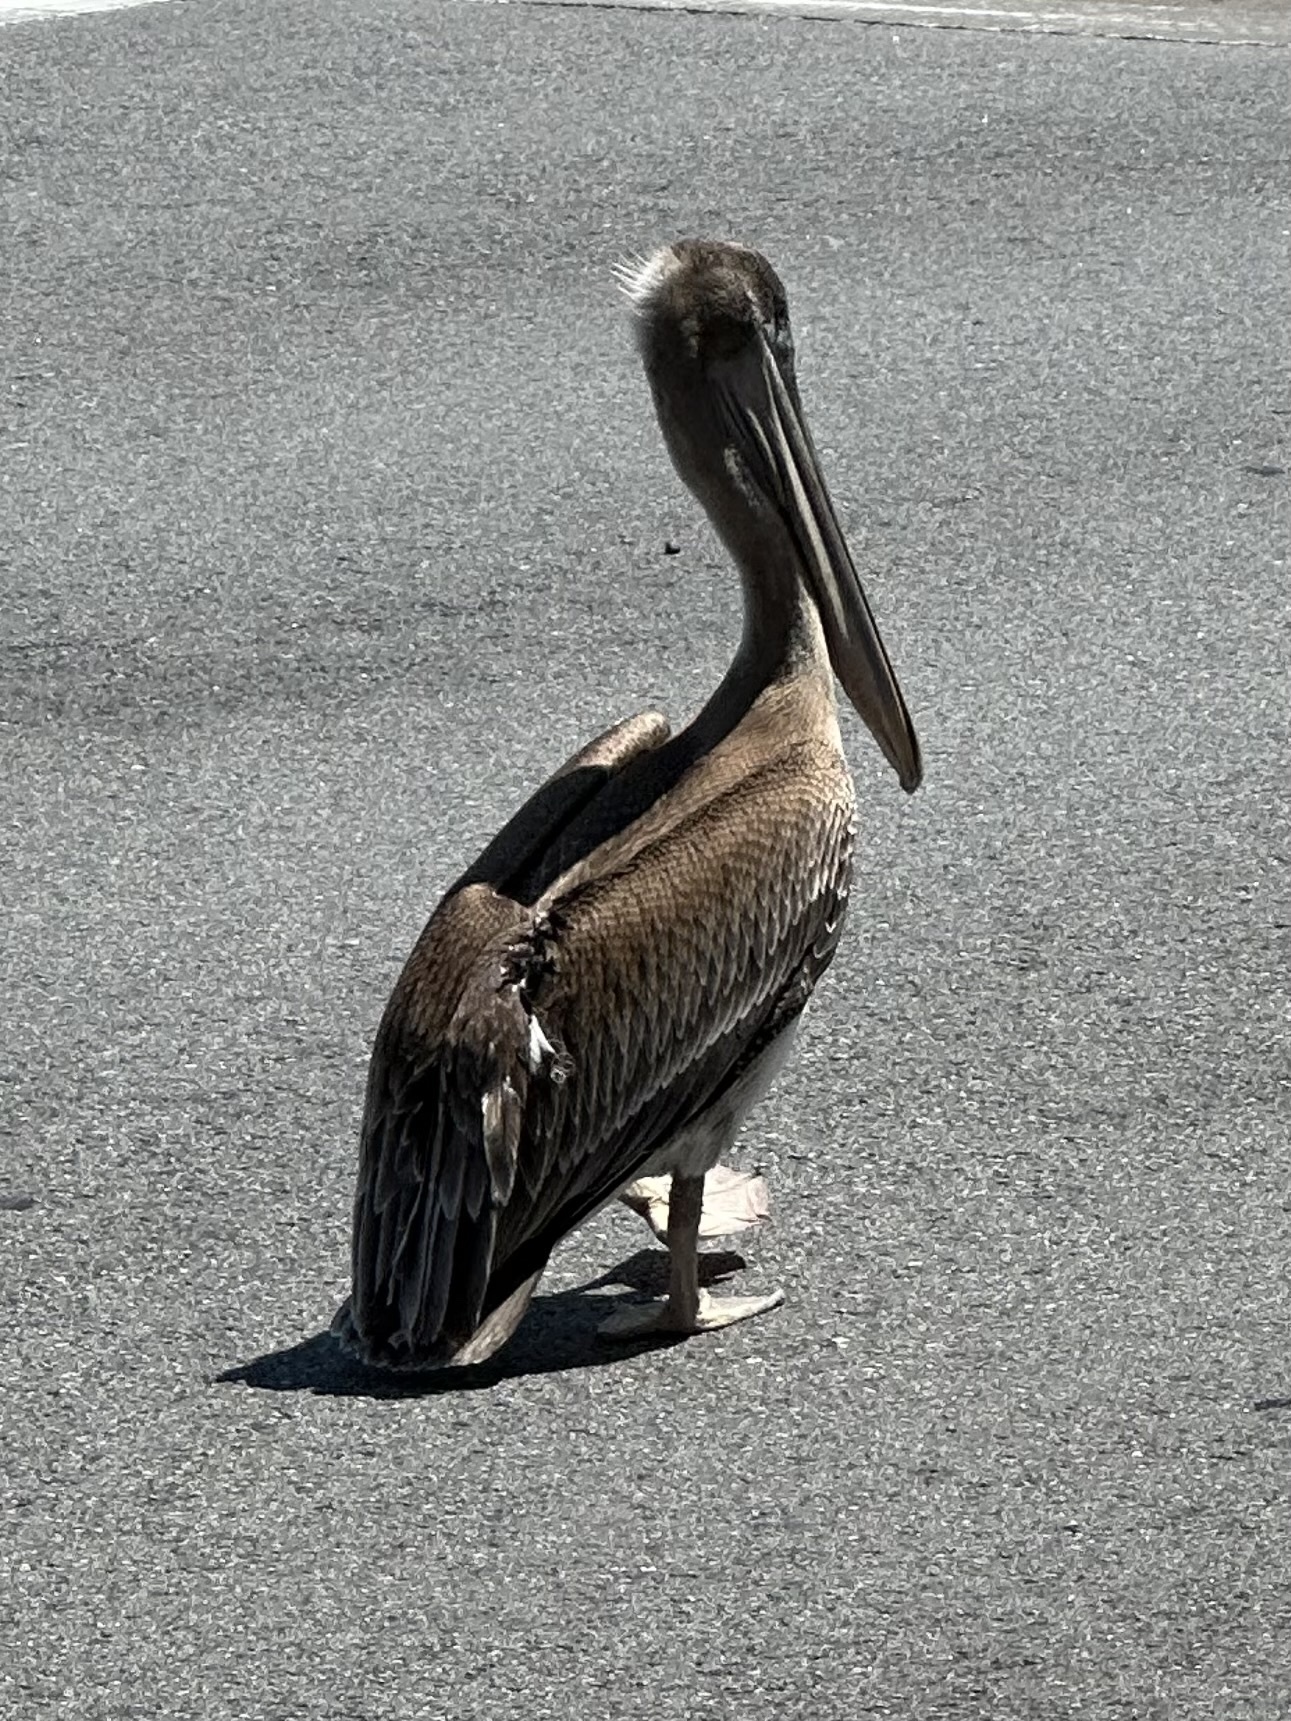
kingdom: Animalia
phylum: Chordata
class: Aves
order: Pelecaniformes
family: Pelecanidae
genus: Pelecanus
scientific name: Pelecanus occidentalis
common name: Brown pelican
